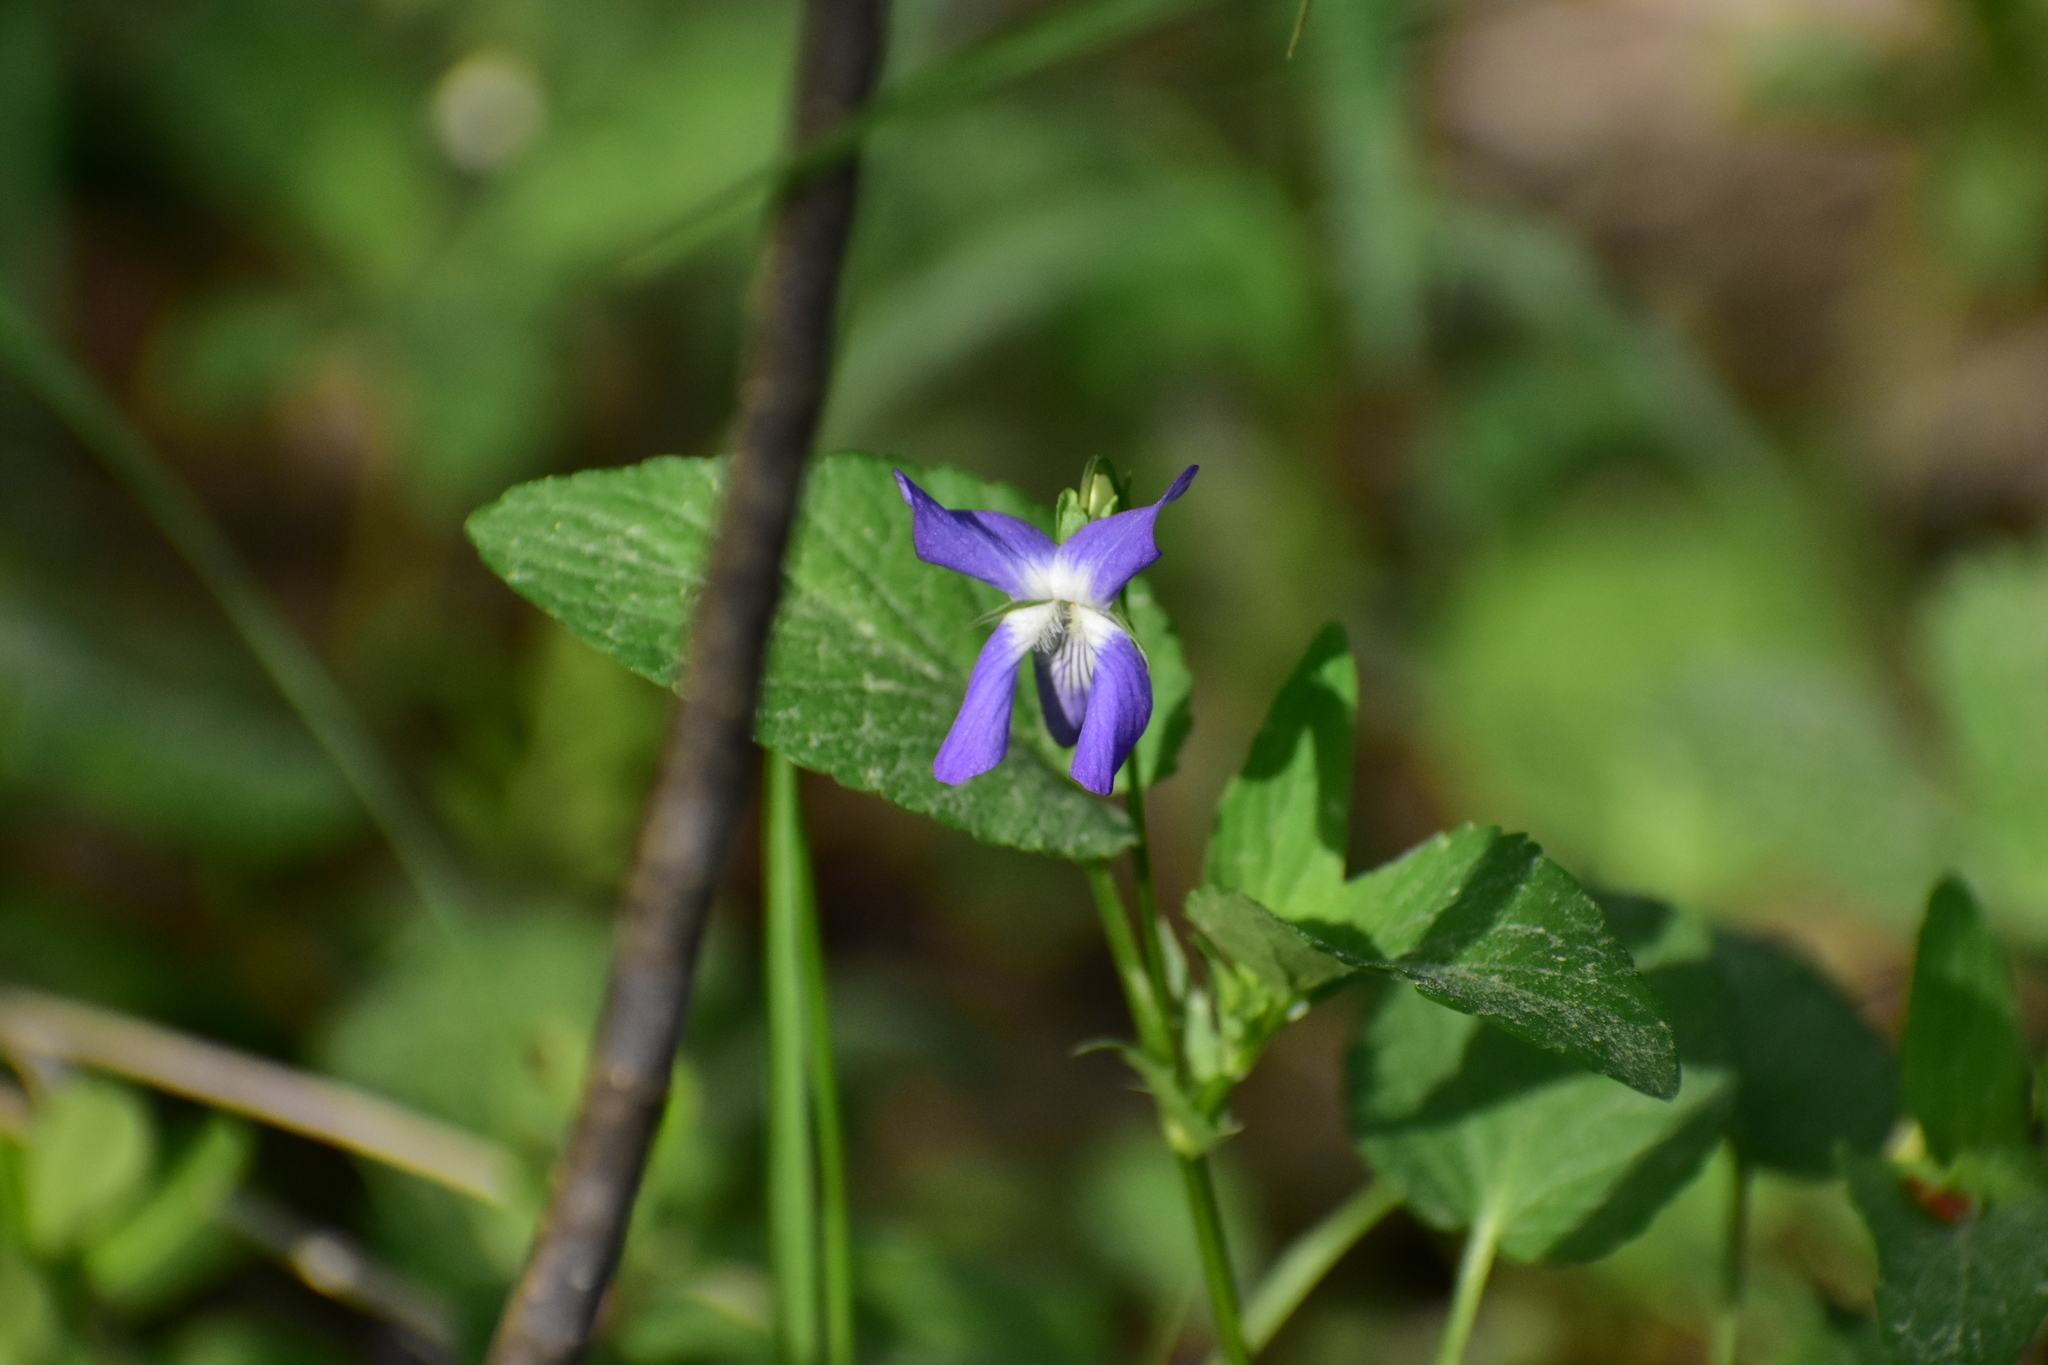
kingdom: Plantae
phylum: Tracheophyta
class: Magnoliopsida
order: Malpighiales
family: Violaceae
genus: Viola
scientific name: Viola canina
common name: Heath dog-violet
